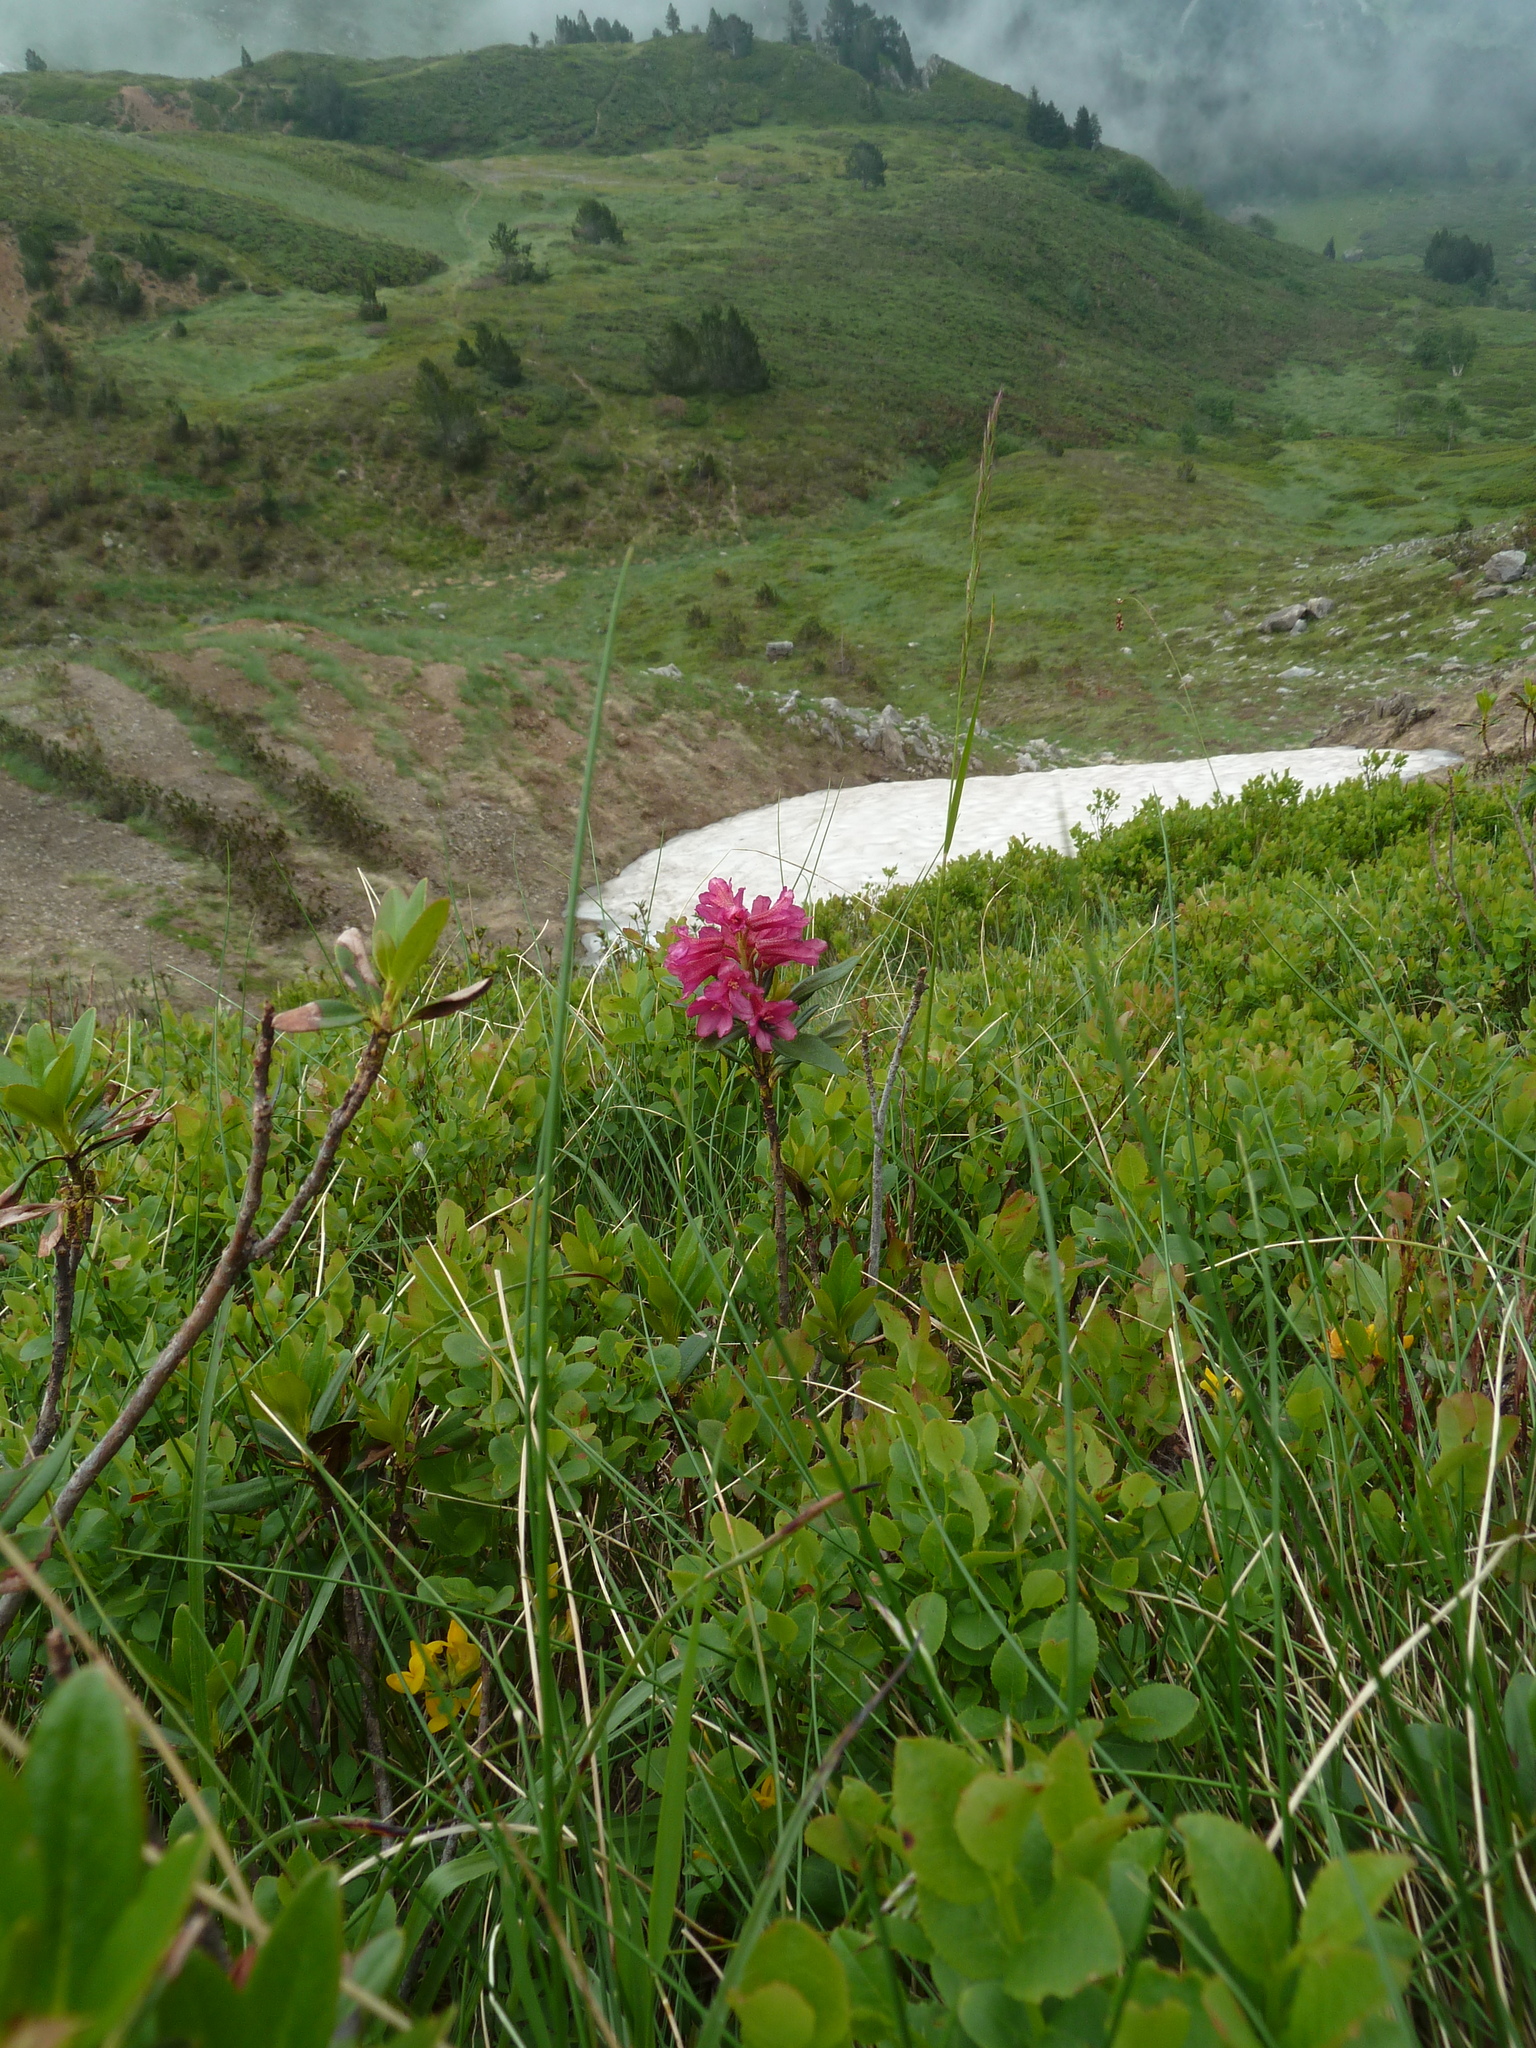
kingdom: Plantae
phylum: Tracheophyta
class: Magnoliopsida
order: Ericales
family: Ericaceae
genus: Rhododendron
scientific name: Rhododendron ferrugineum
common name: Alpenrose
